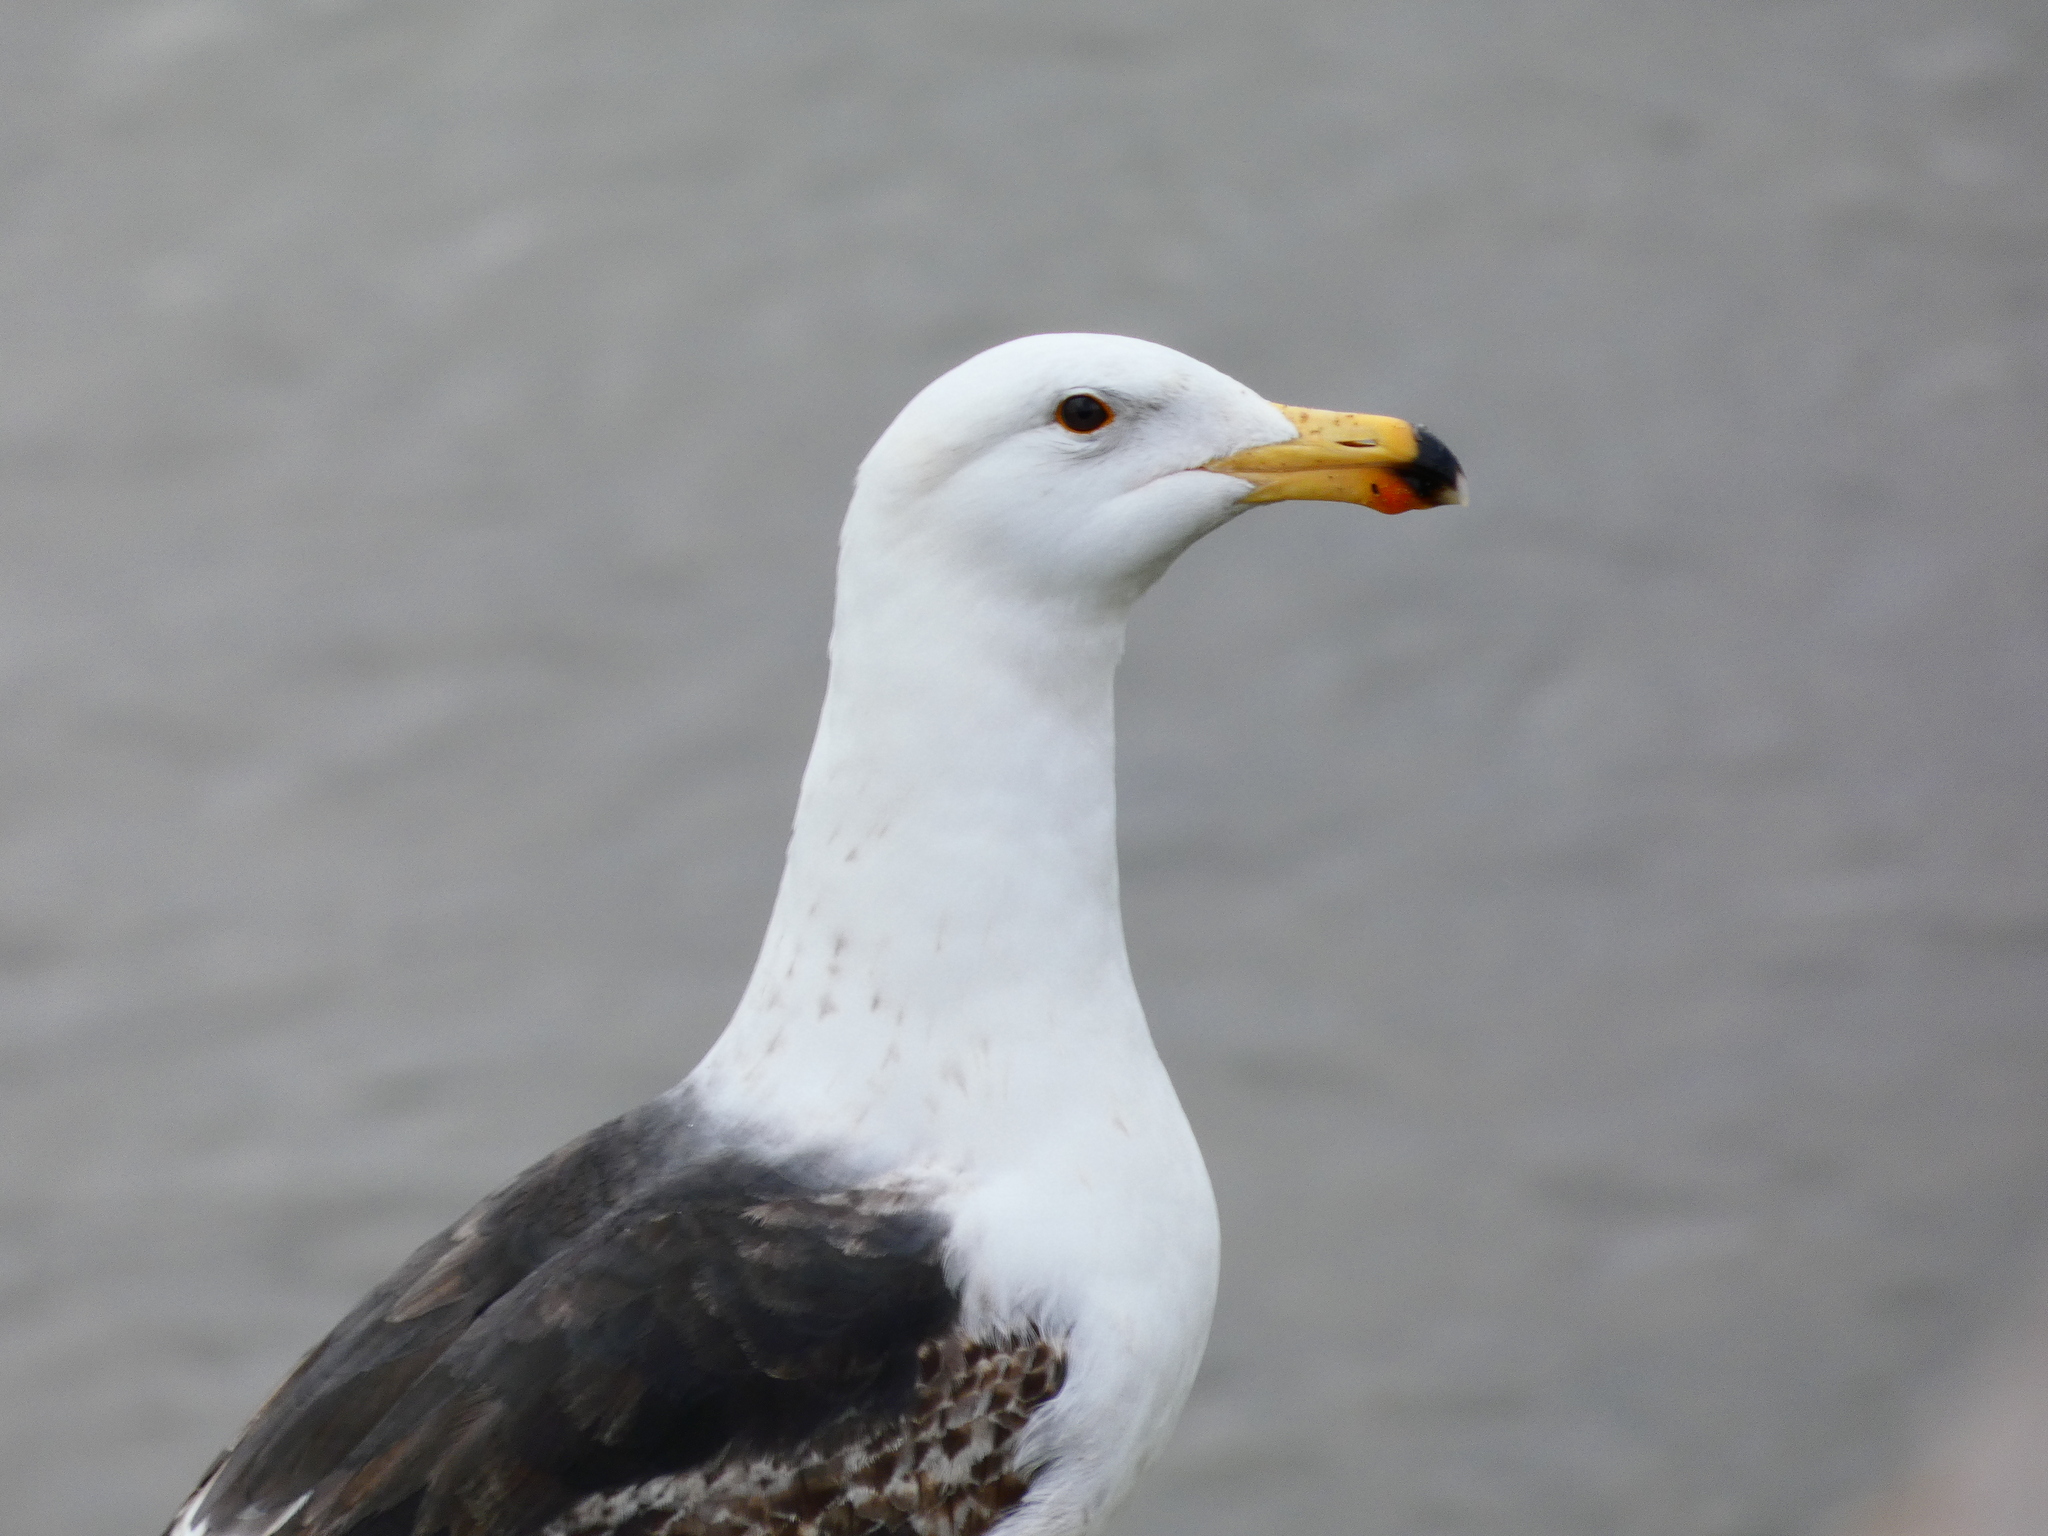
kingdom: Animalia
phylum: Chordata
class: Aves
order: Charadriiformes
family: Laridae
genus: Larus
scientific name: Larus marinus
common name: Great black-backed gull
